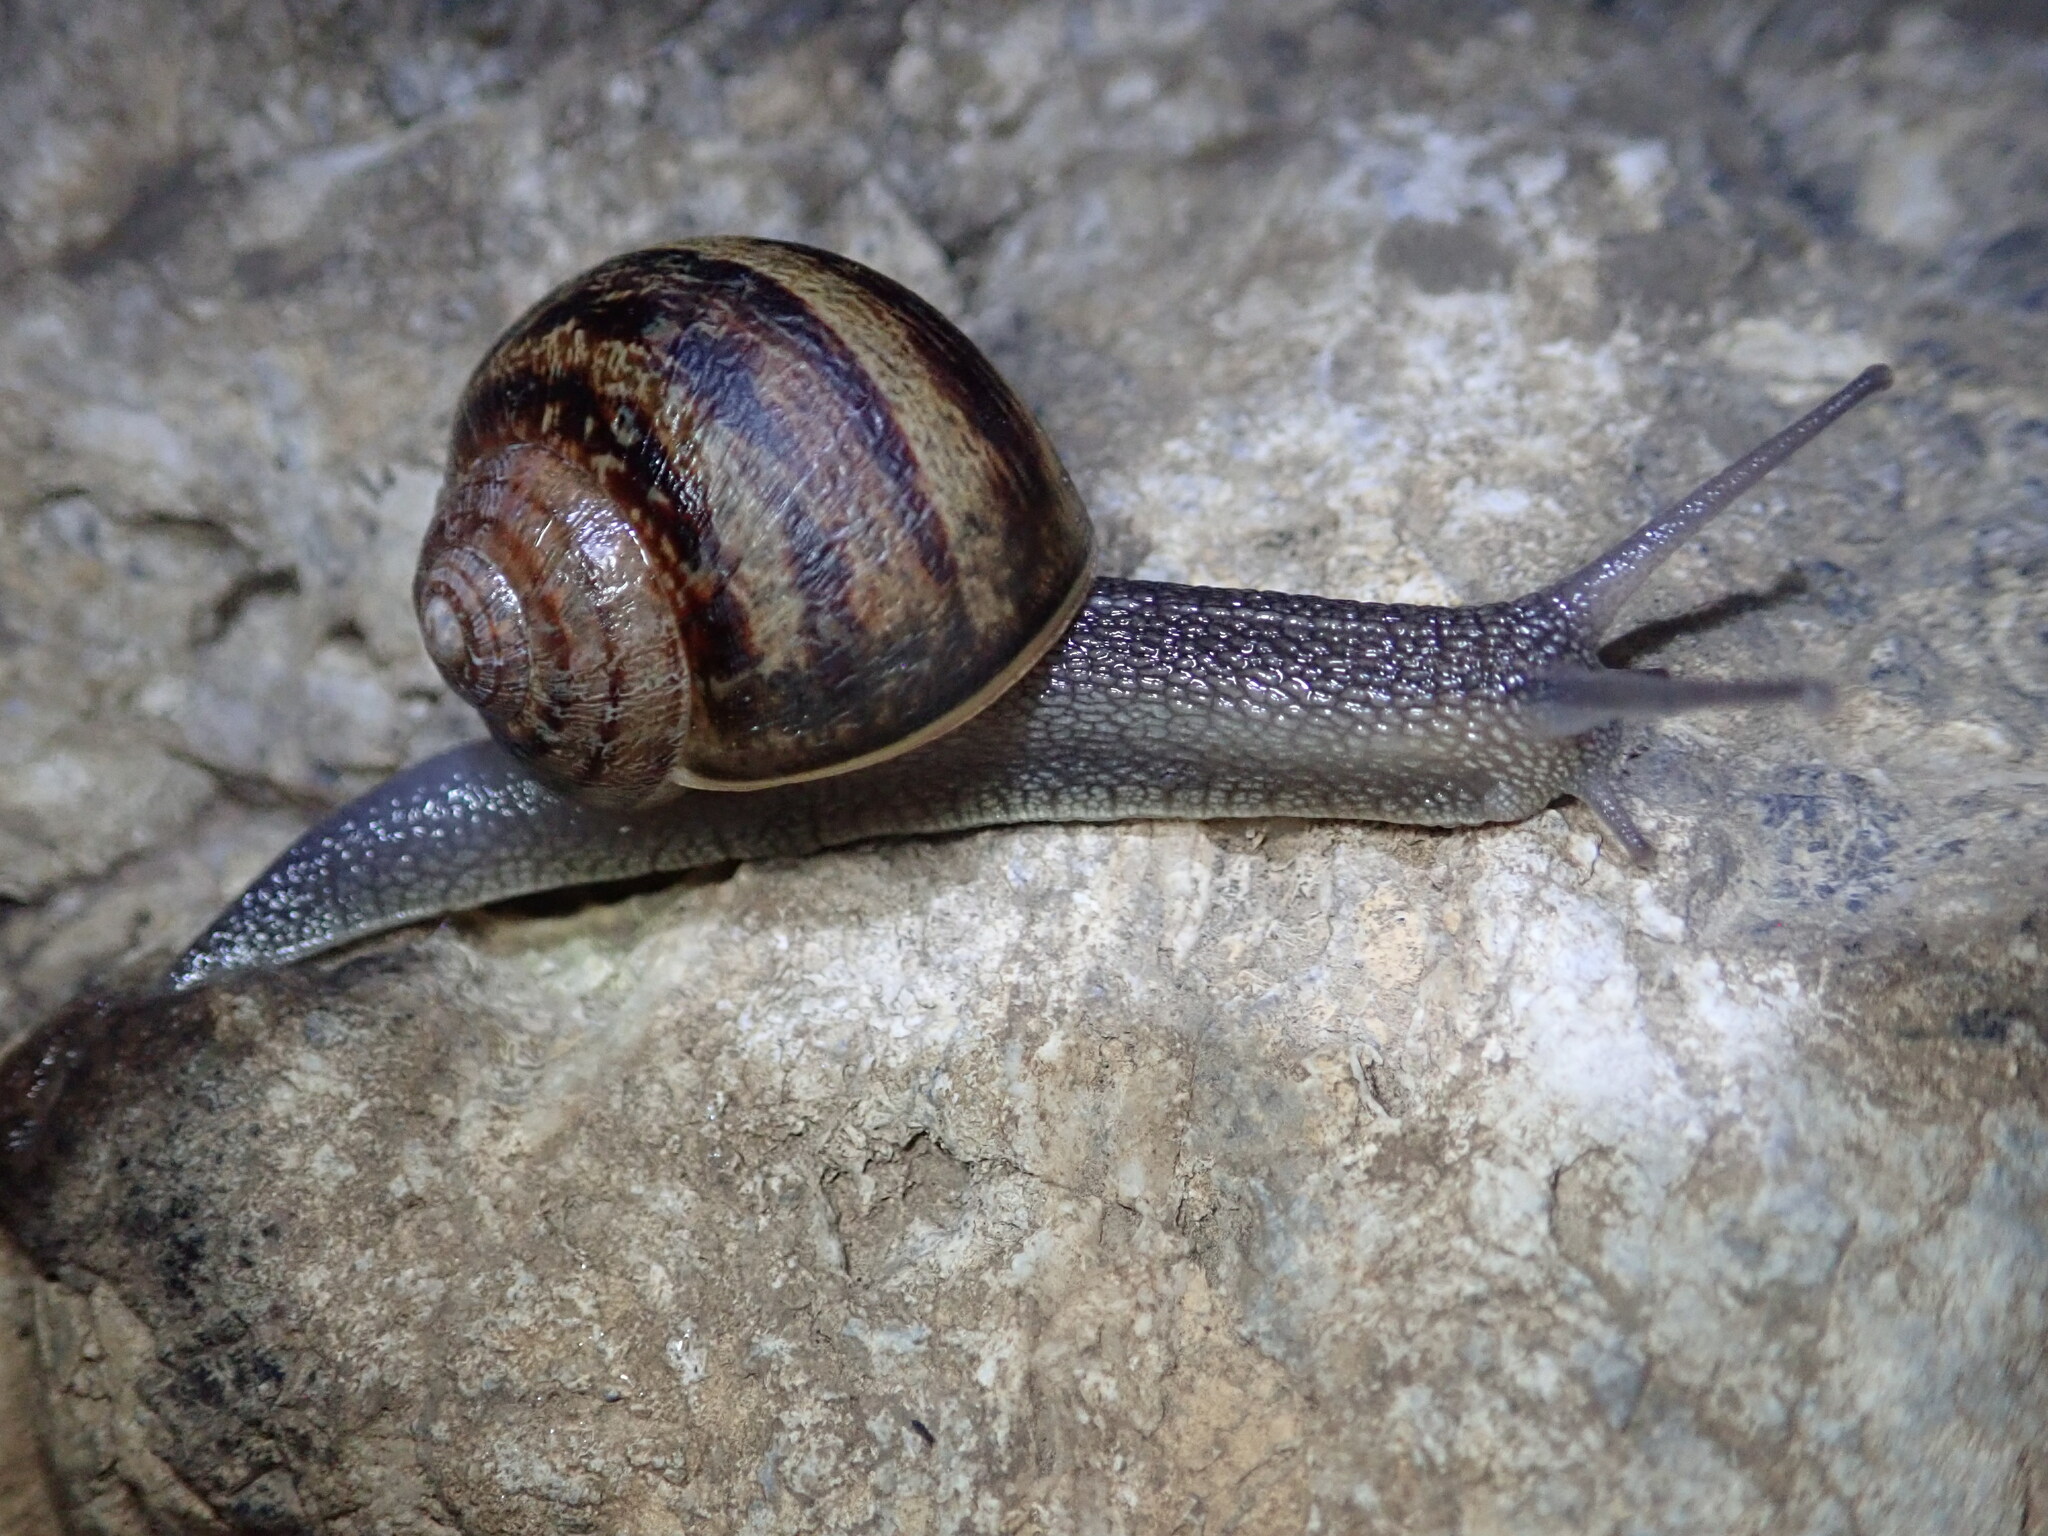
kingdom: Animalia
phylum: Mollusca
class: Gastropoda
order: Stylommatophora
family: Helicidae
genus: Cornu
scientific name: Cornu aspersum
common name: Brown garden snail
